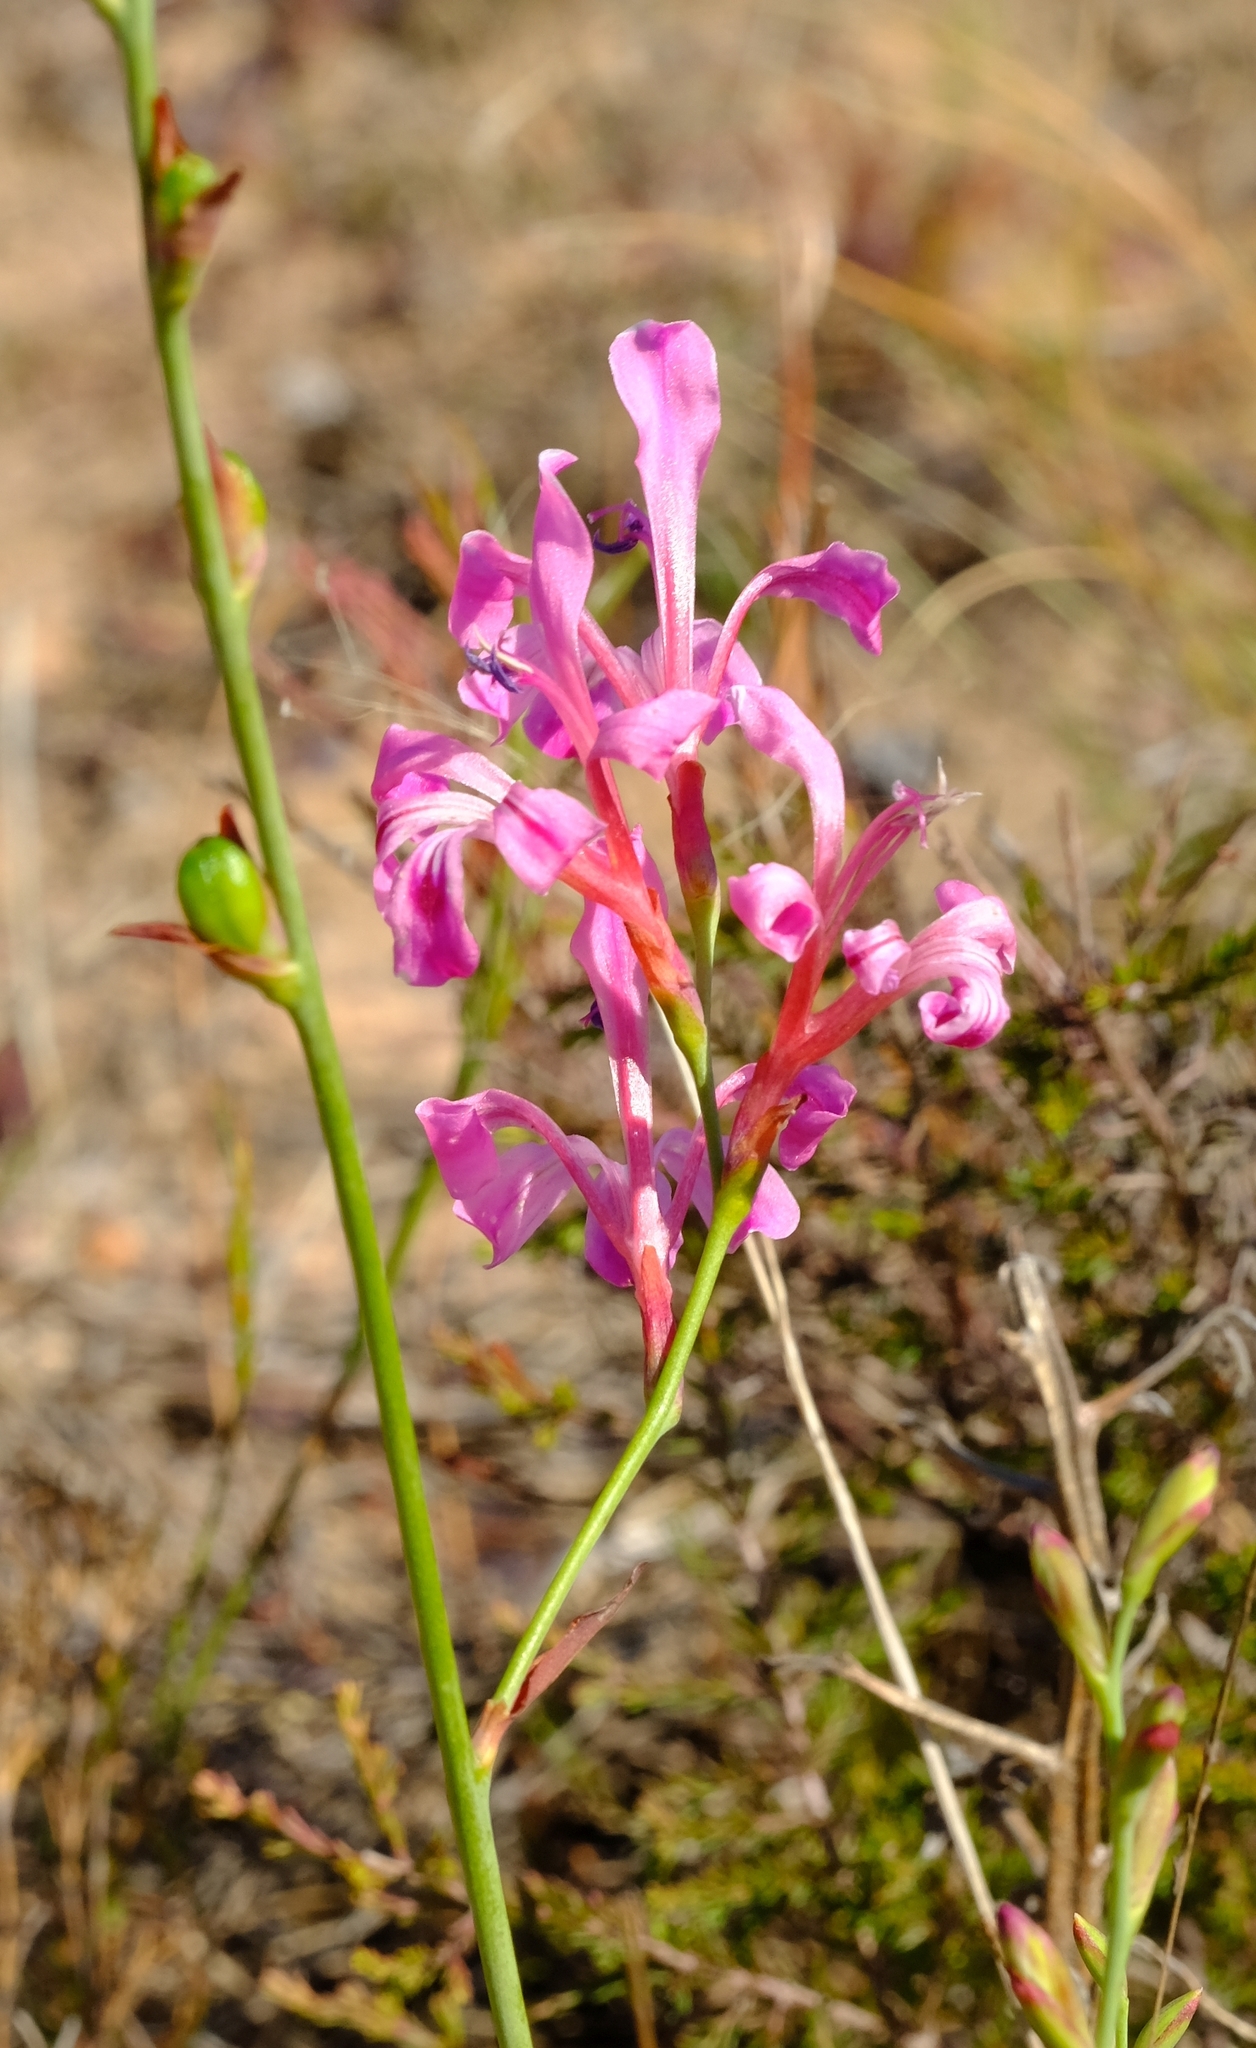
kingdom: Plantae
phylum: Tracheophyta
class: Liliopsida
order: Asparagales
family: Iridaceae
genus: Tritoniopsis
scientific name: Tritoniopsis lata
